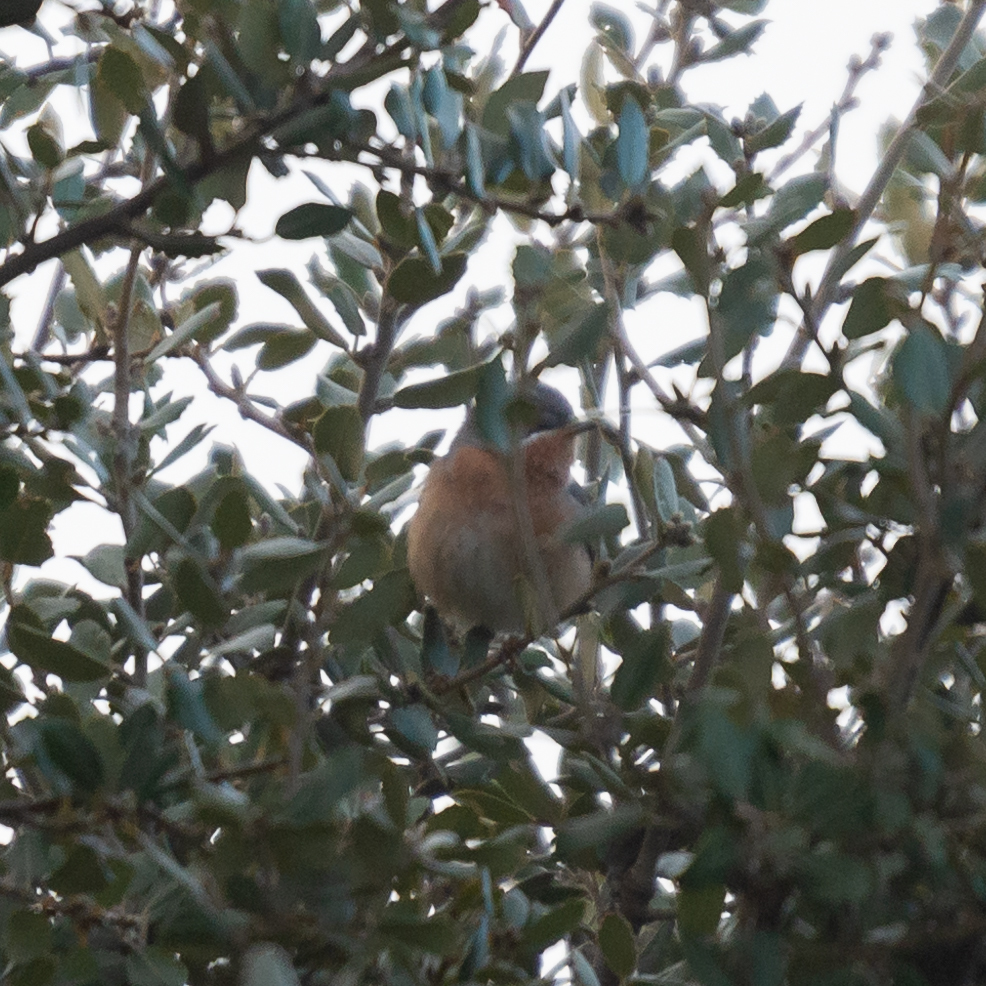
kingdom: Animalia
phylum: Chordata
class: Aves
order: Passeriformes
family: Sylviidae
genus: Curruca
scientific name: Curruca iberiae
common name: Western subalpine warbler
